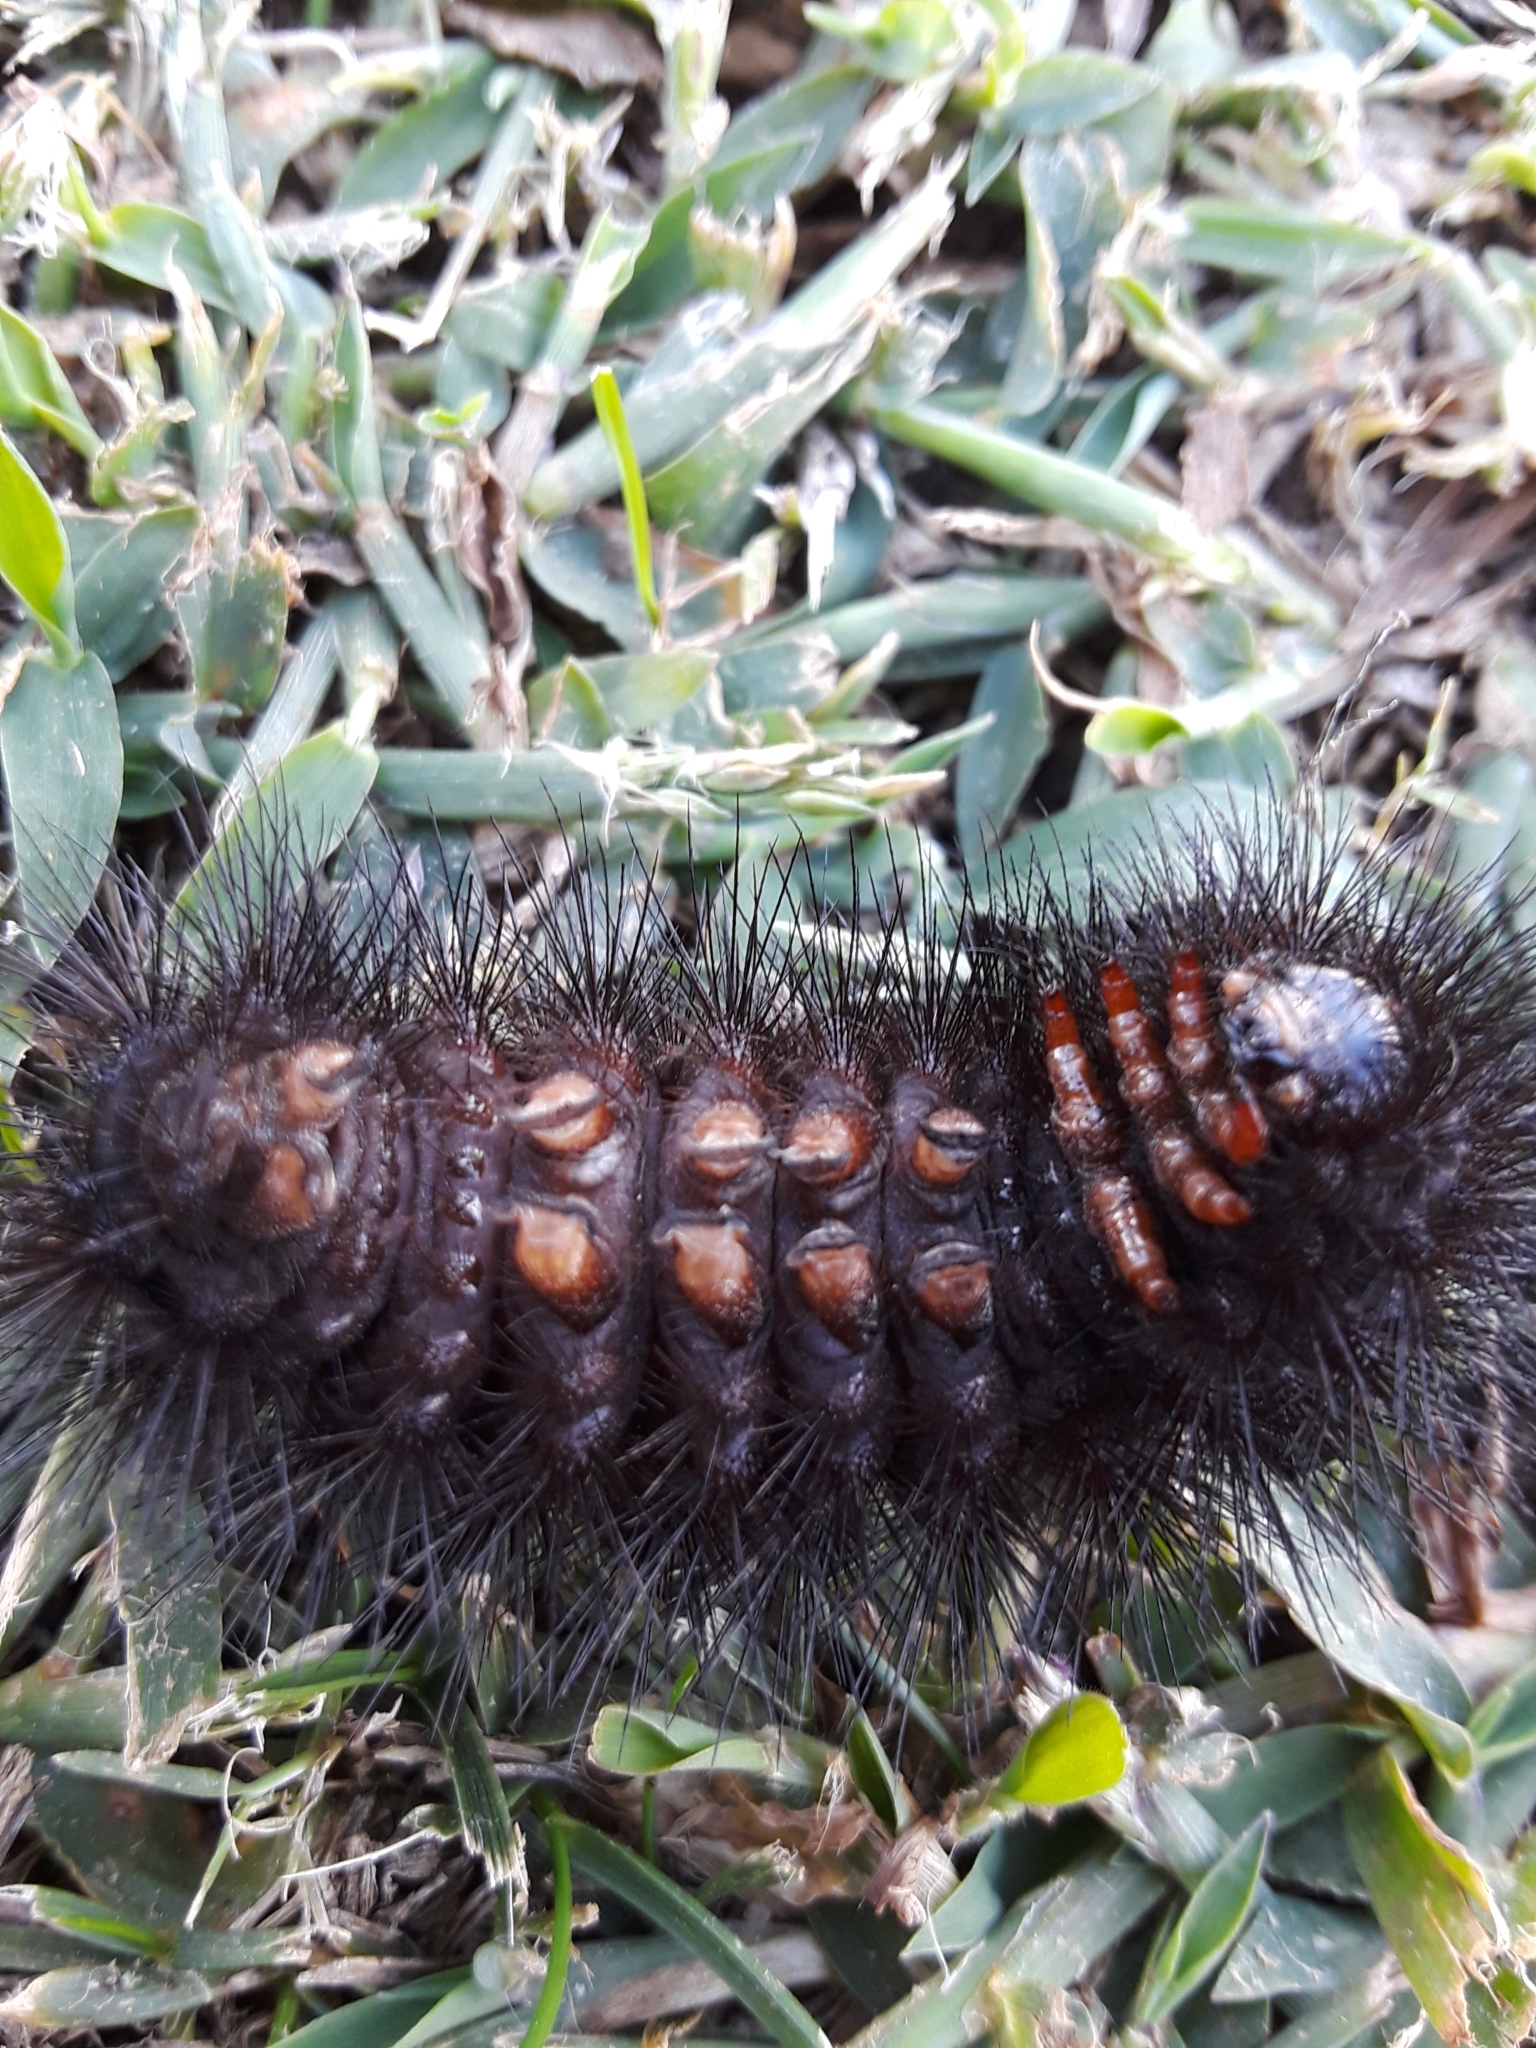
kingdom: Animalia
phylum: Arthropoda
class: Insecta
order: Lepidoptera
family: Erebidae
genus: Hypercompe
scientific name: Hypercompe scribonia
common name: Giant leopard moth
